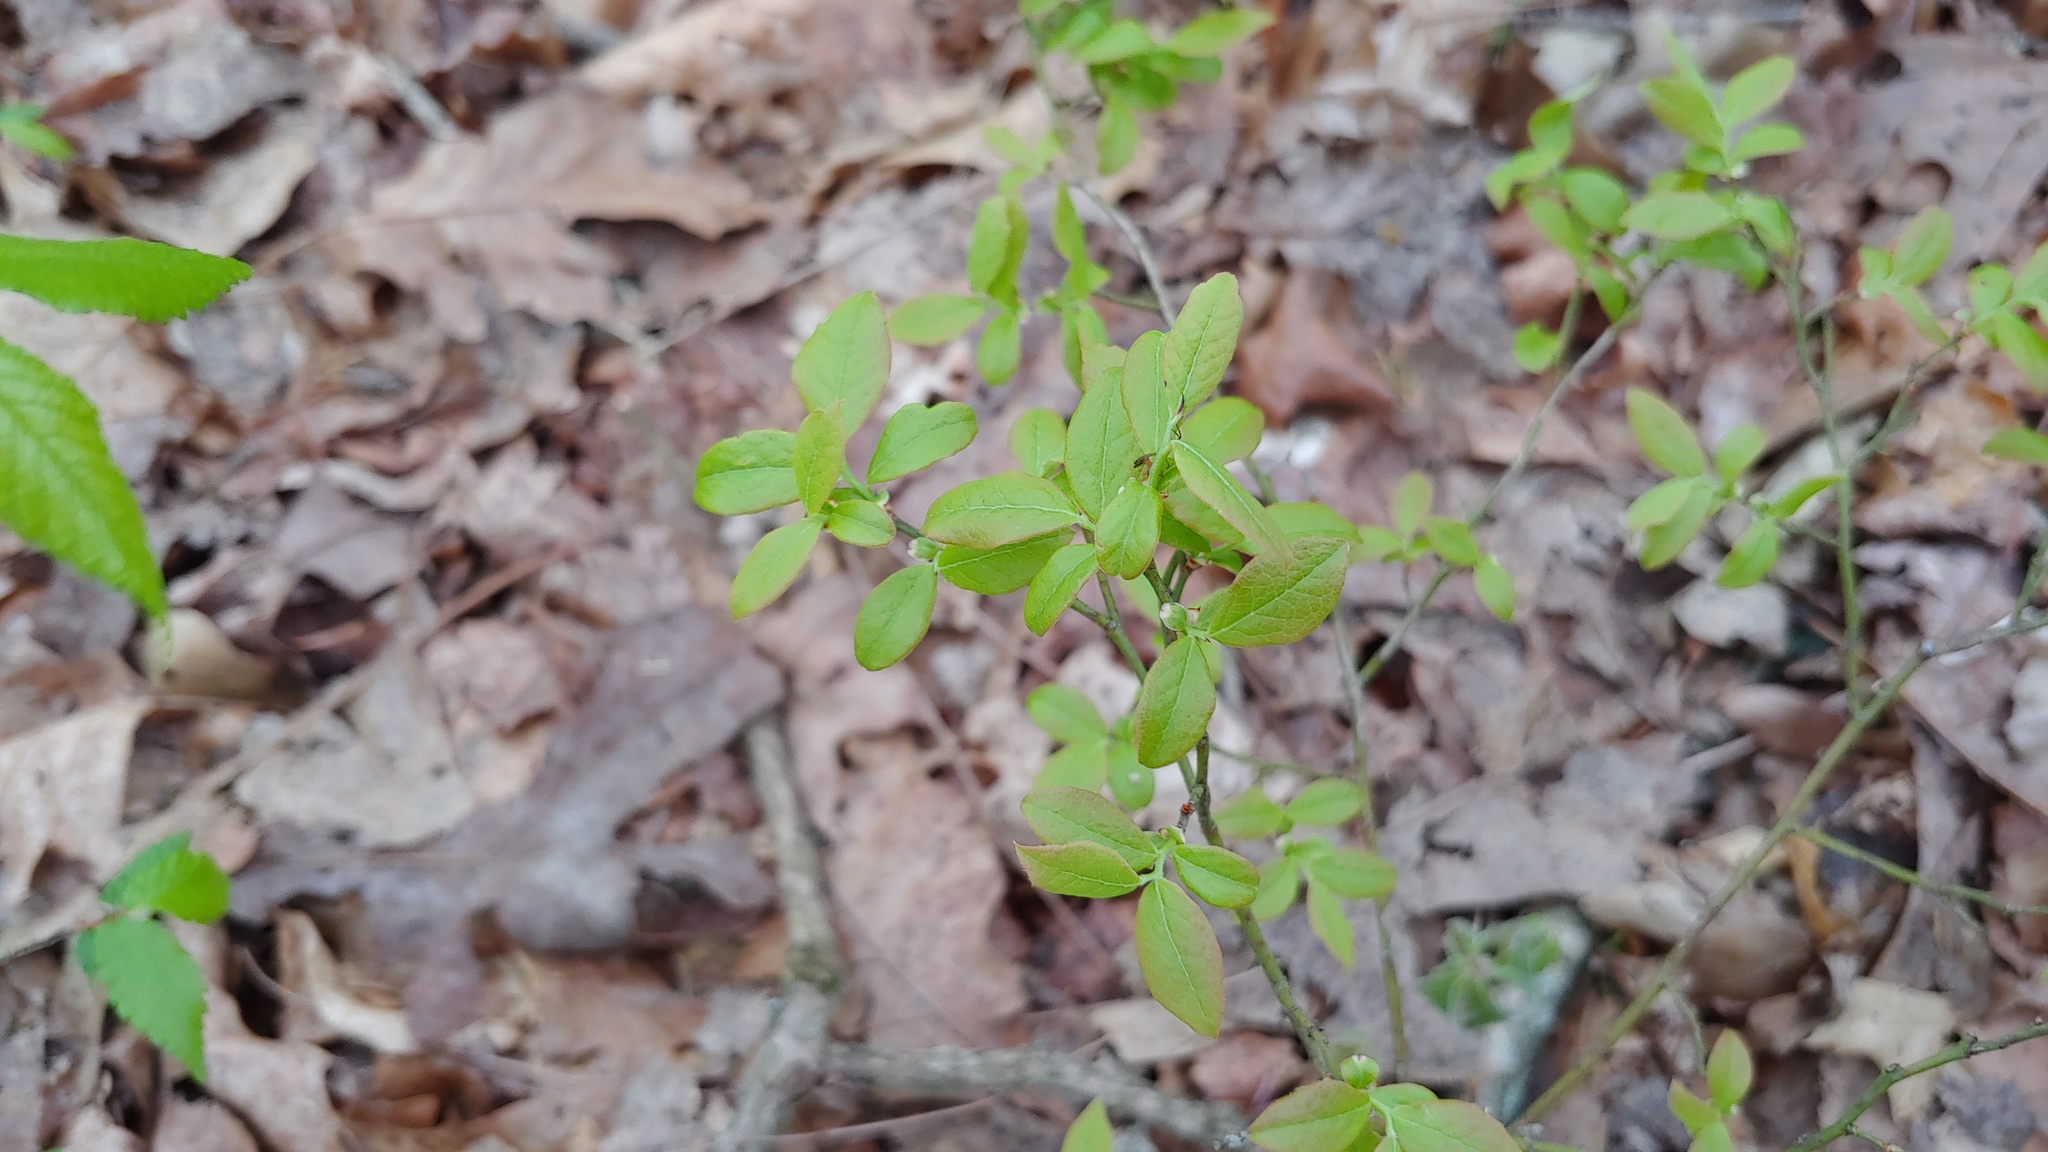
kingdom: Plantae
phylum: Tracheophyta
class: Magnoliopsida
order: Ericales
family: Ericaceae
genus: Vaccinium
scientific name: Vaccinium pallidum
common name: Blue ridge blueberry
